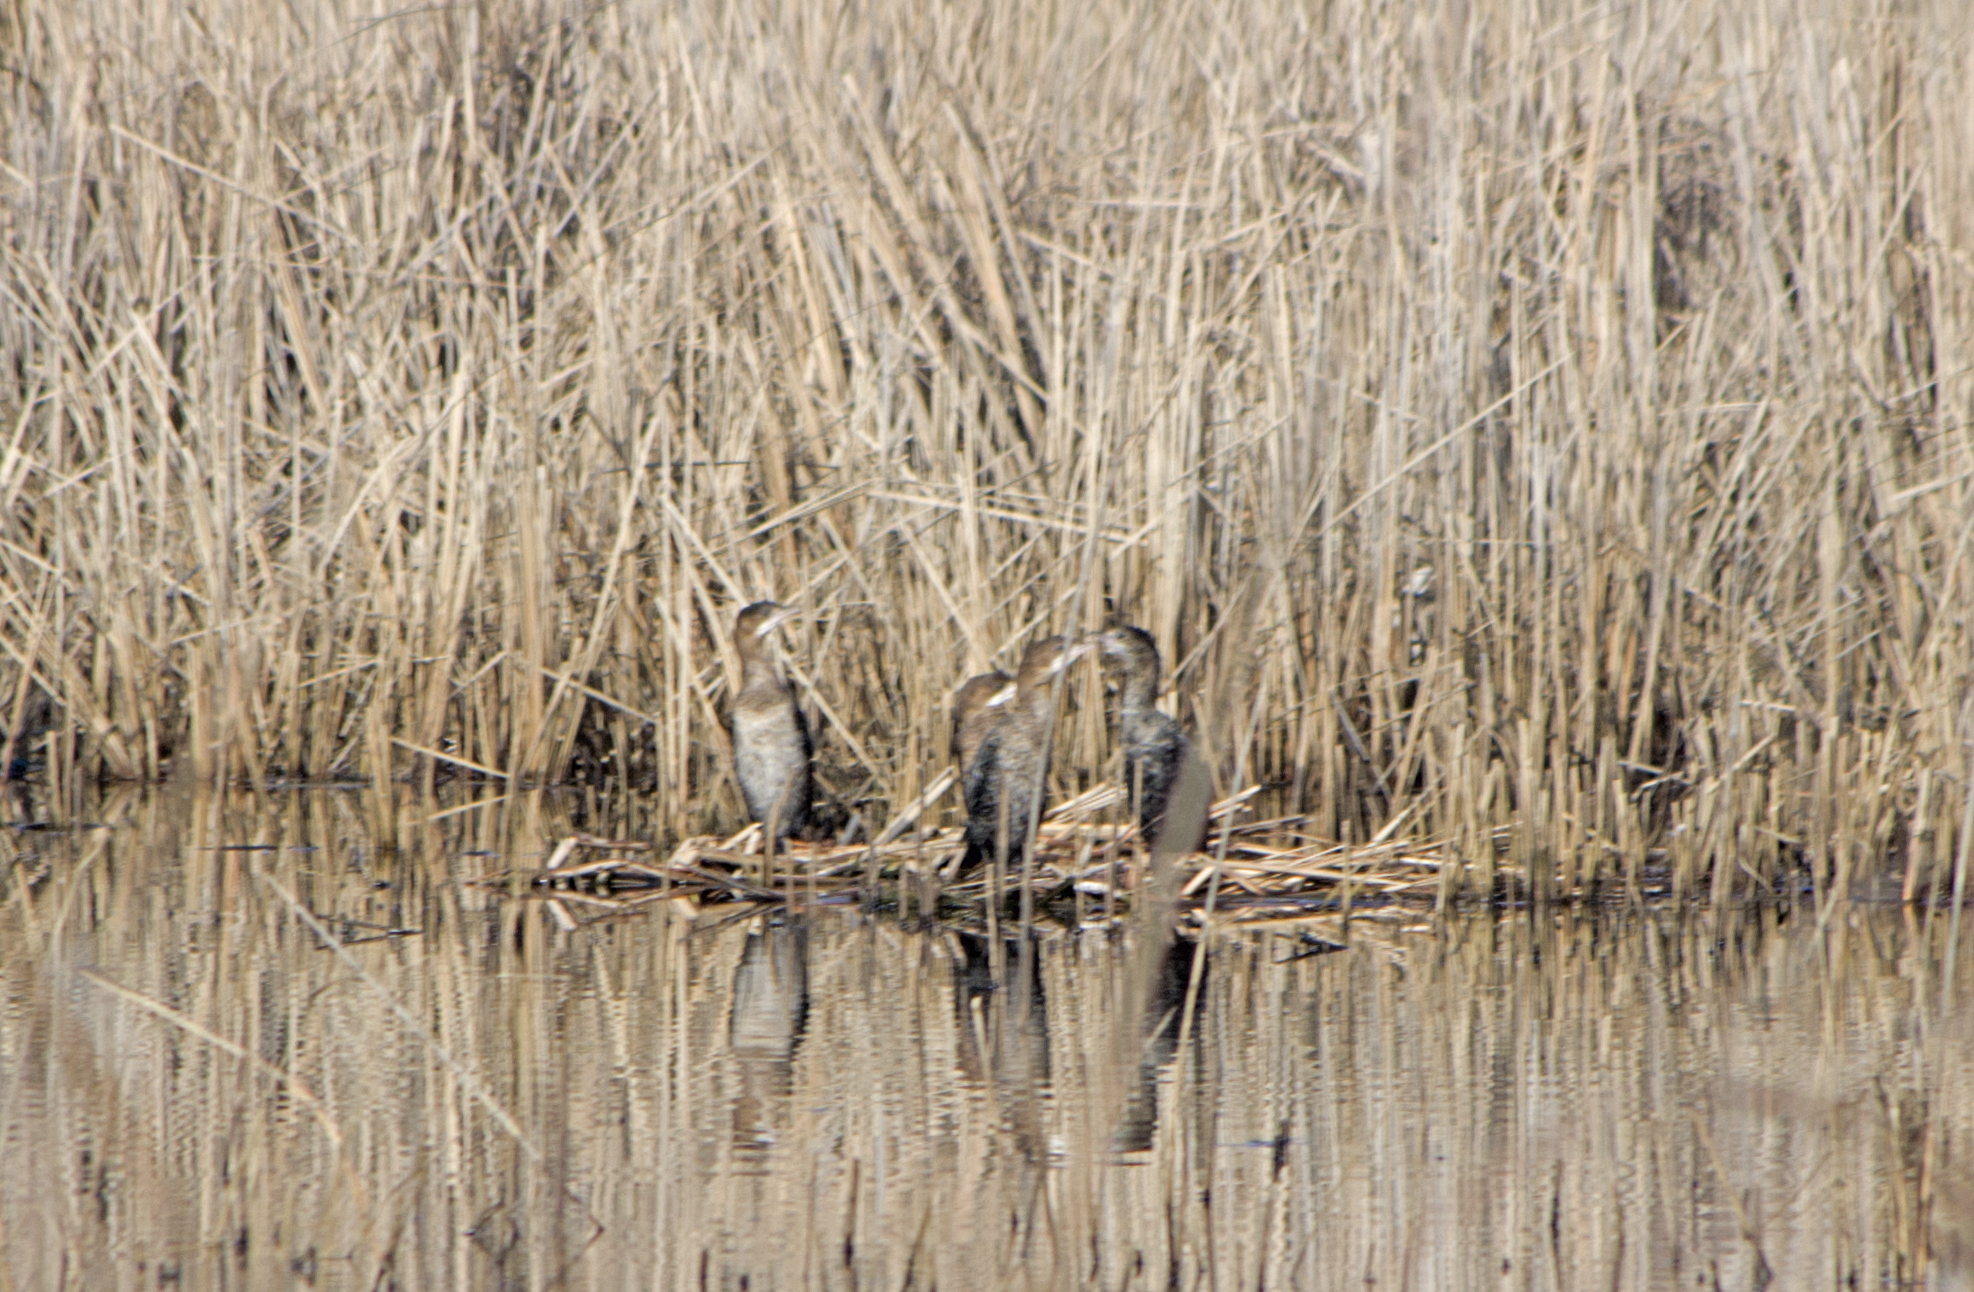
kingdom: Animalia
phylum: Chordata
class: Aves
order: Suliformes
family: Phalacrocoracidae
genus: Microcarbo
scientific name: Microcarbo pygmaeus
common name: Pygmy cormorant
